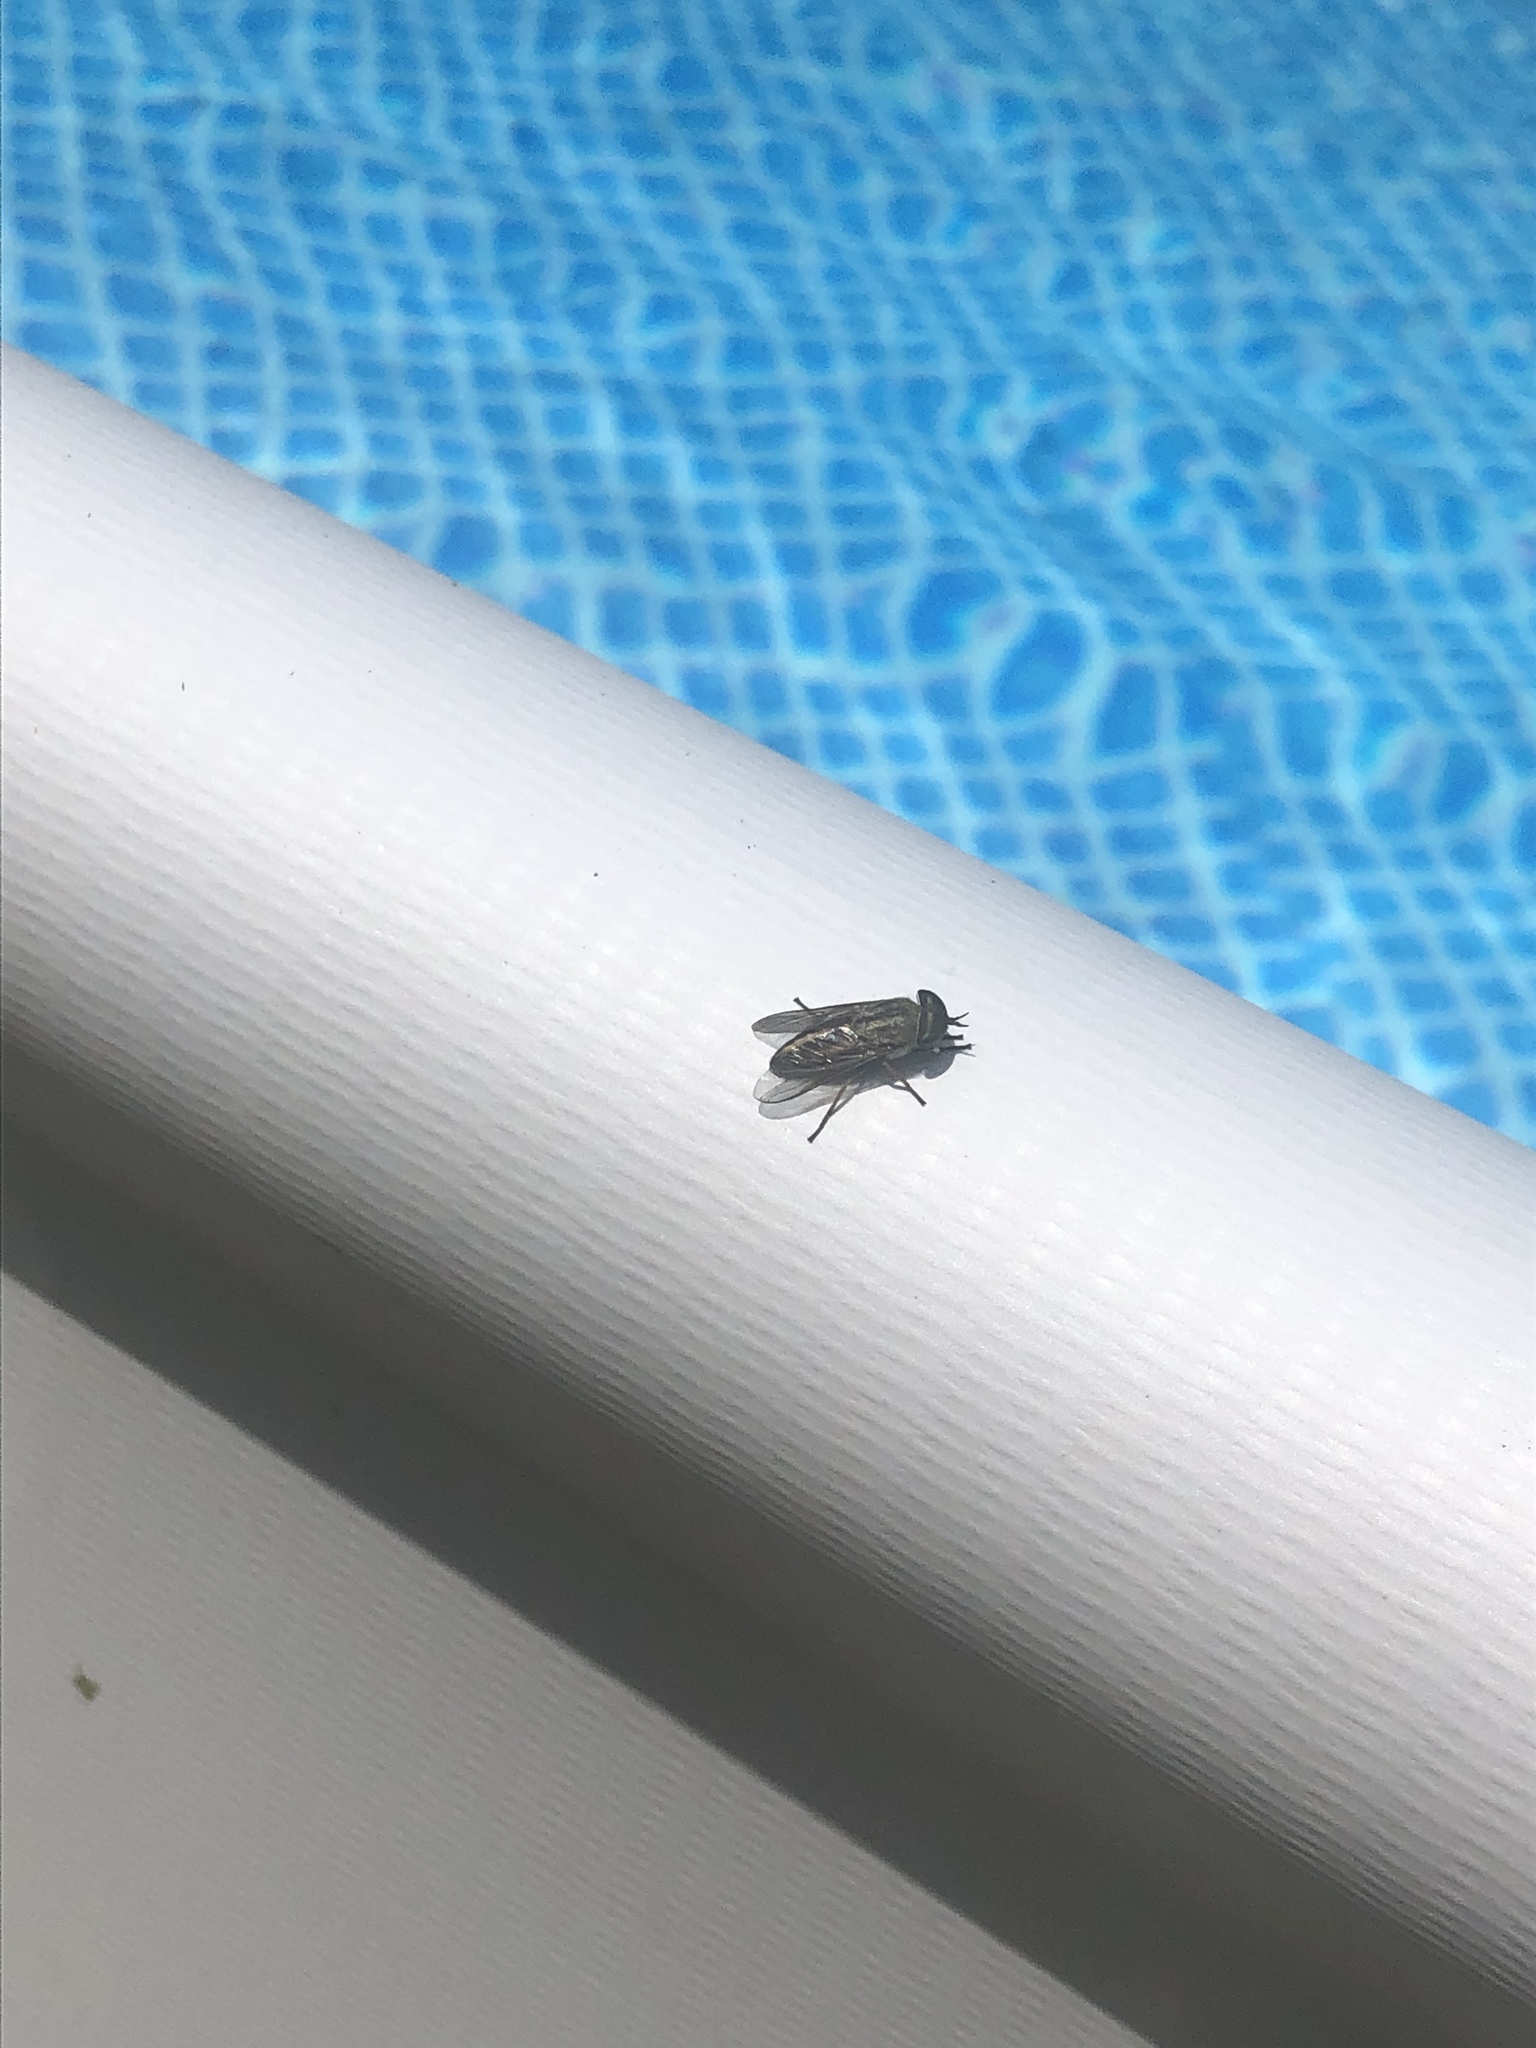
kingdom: Animalia
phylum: Arthropoda
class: Insecta
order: Diptera
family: Tabanidae
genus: Tabanus
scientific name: Tabanus lineola
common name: Striped horse fly
